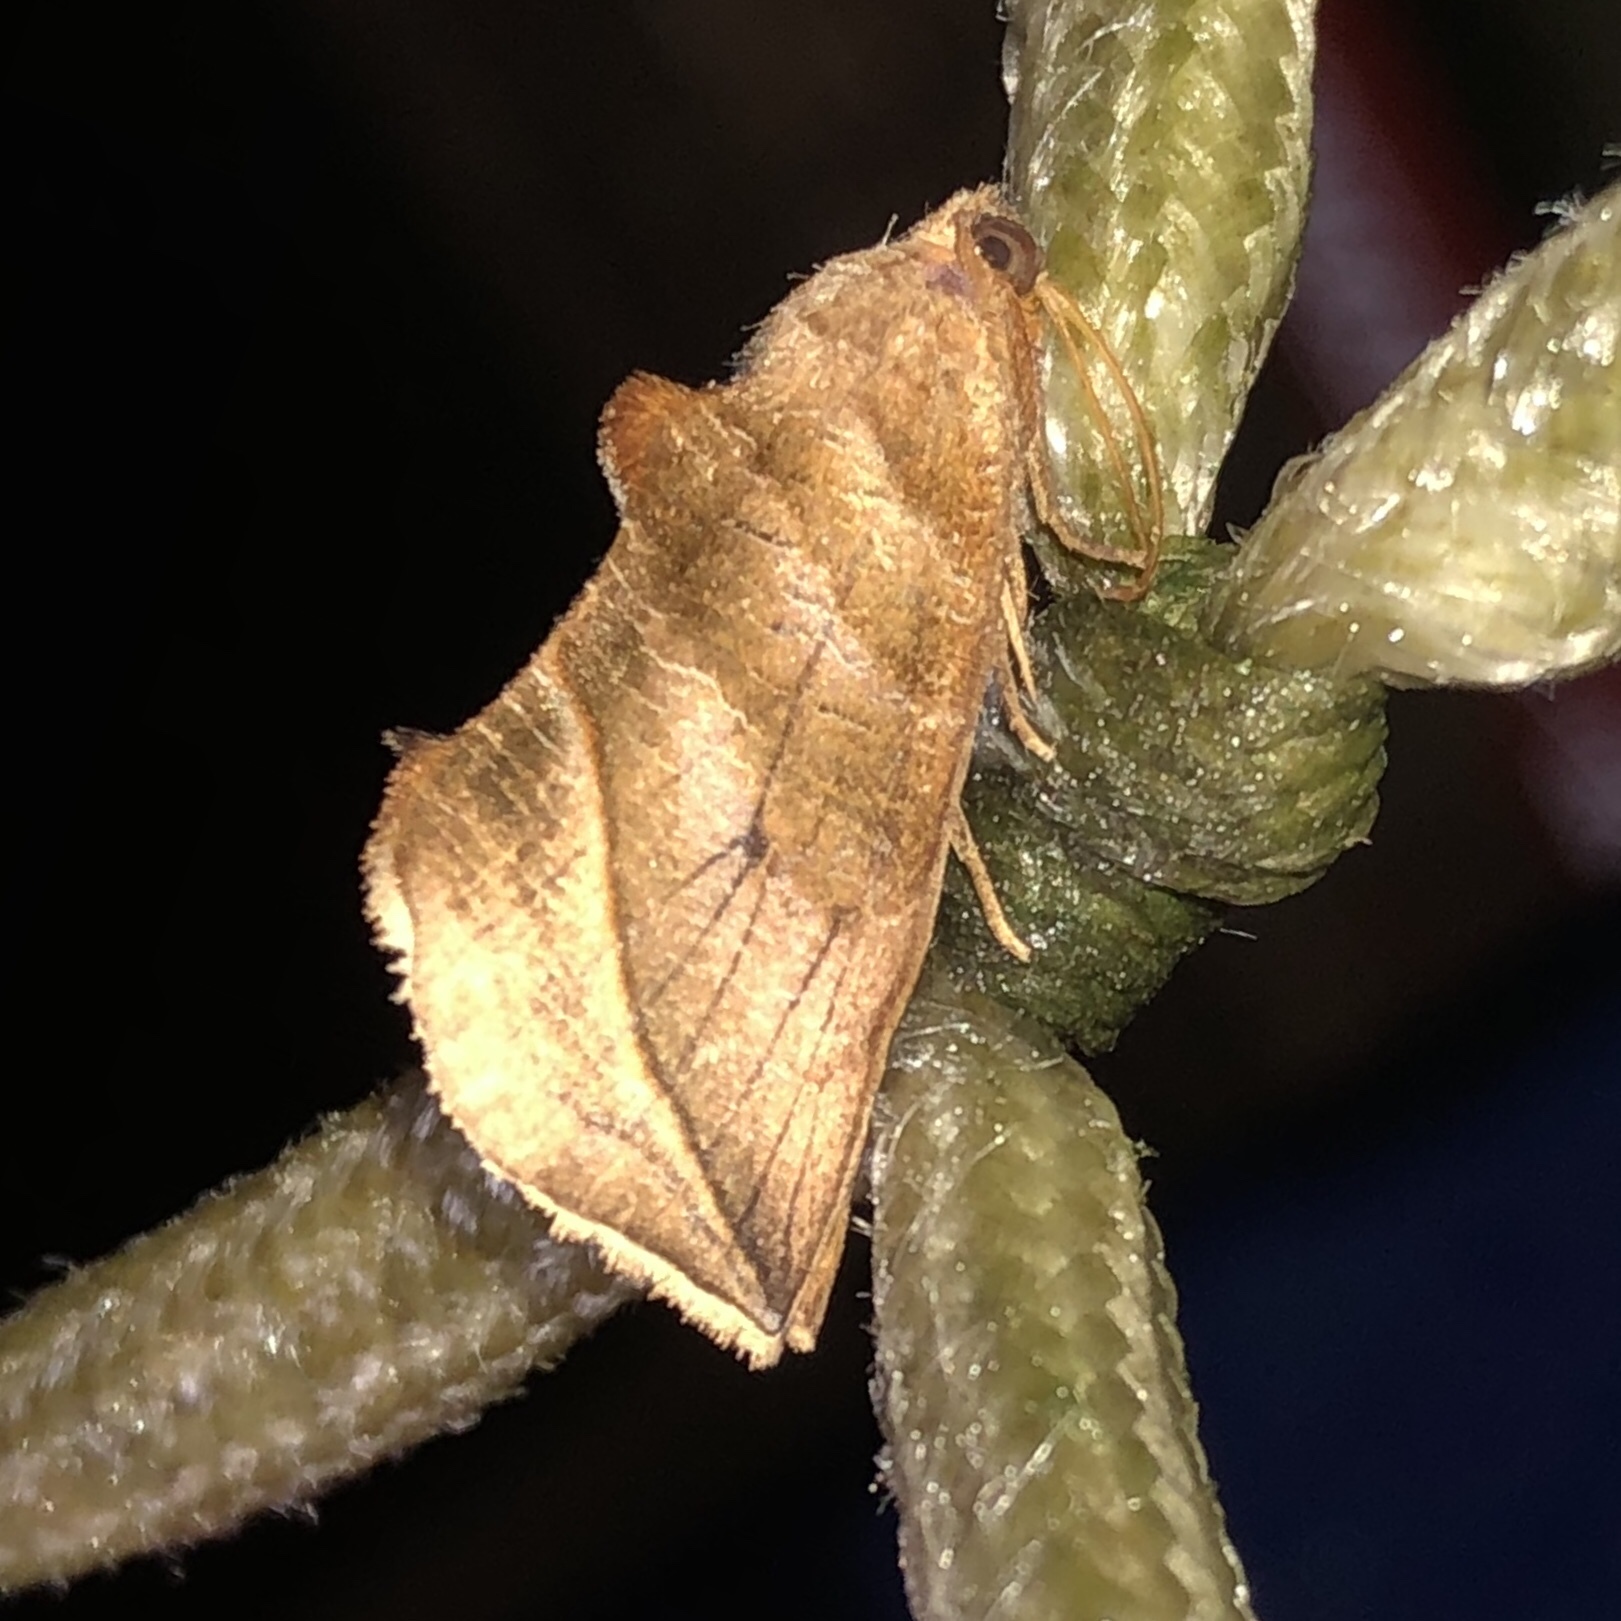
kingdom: Animalia
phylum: Arthropoda
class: Insecta
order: Lepidoptera
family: Erebidae
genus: Calyptra
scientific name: Calyptra canadensis
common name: Canadian owlet
